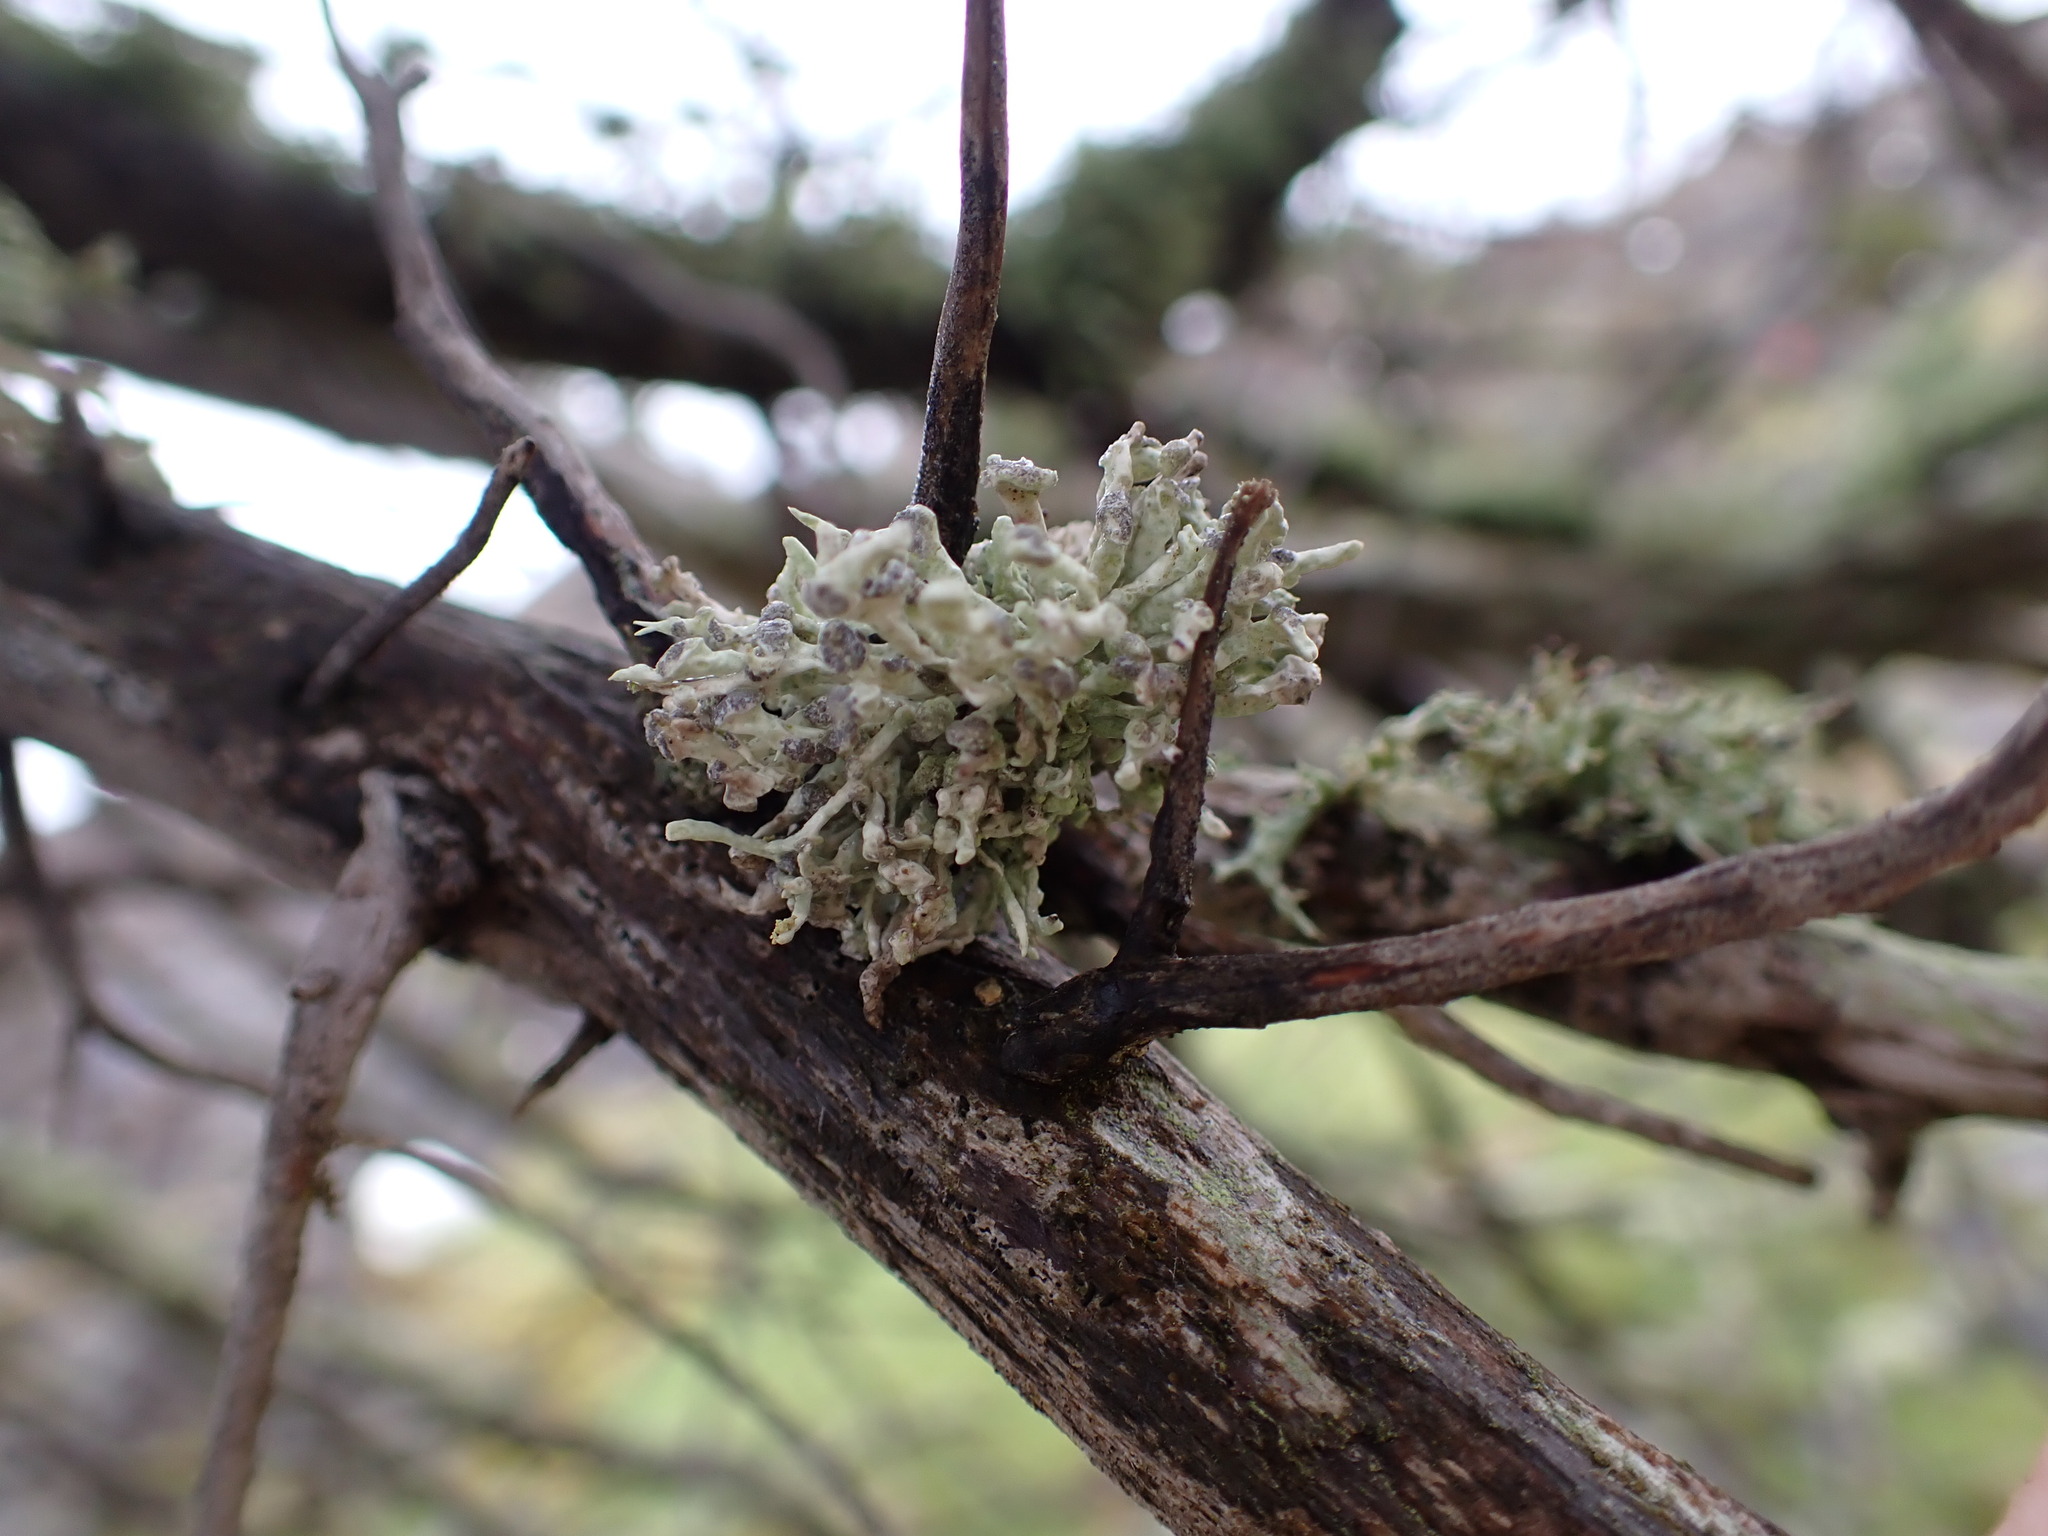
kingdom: Fungi
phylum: Ascomycota
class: Lecanoromycetes
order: Lecanorales
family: Ramalinaceae
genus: Niebla
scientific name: Niebla cephalota
